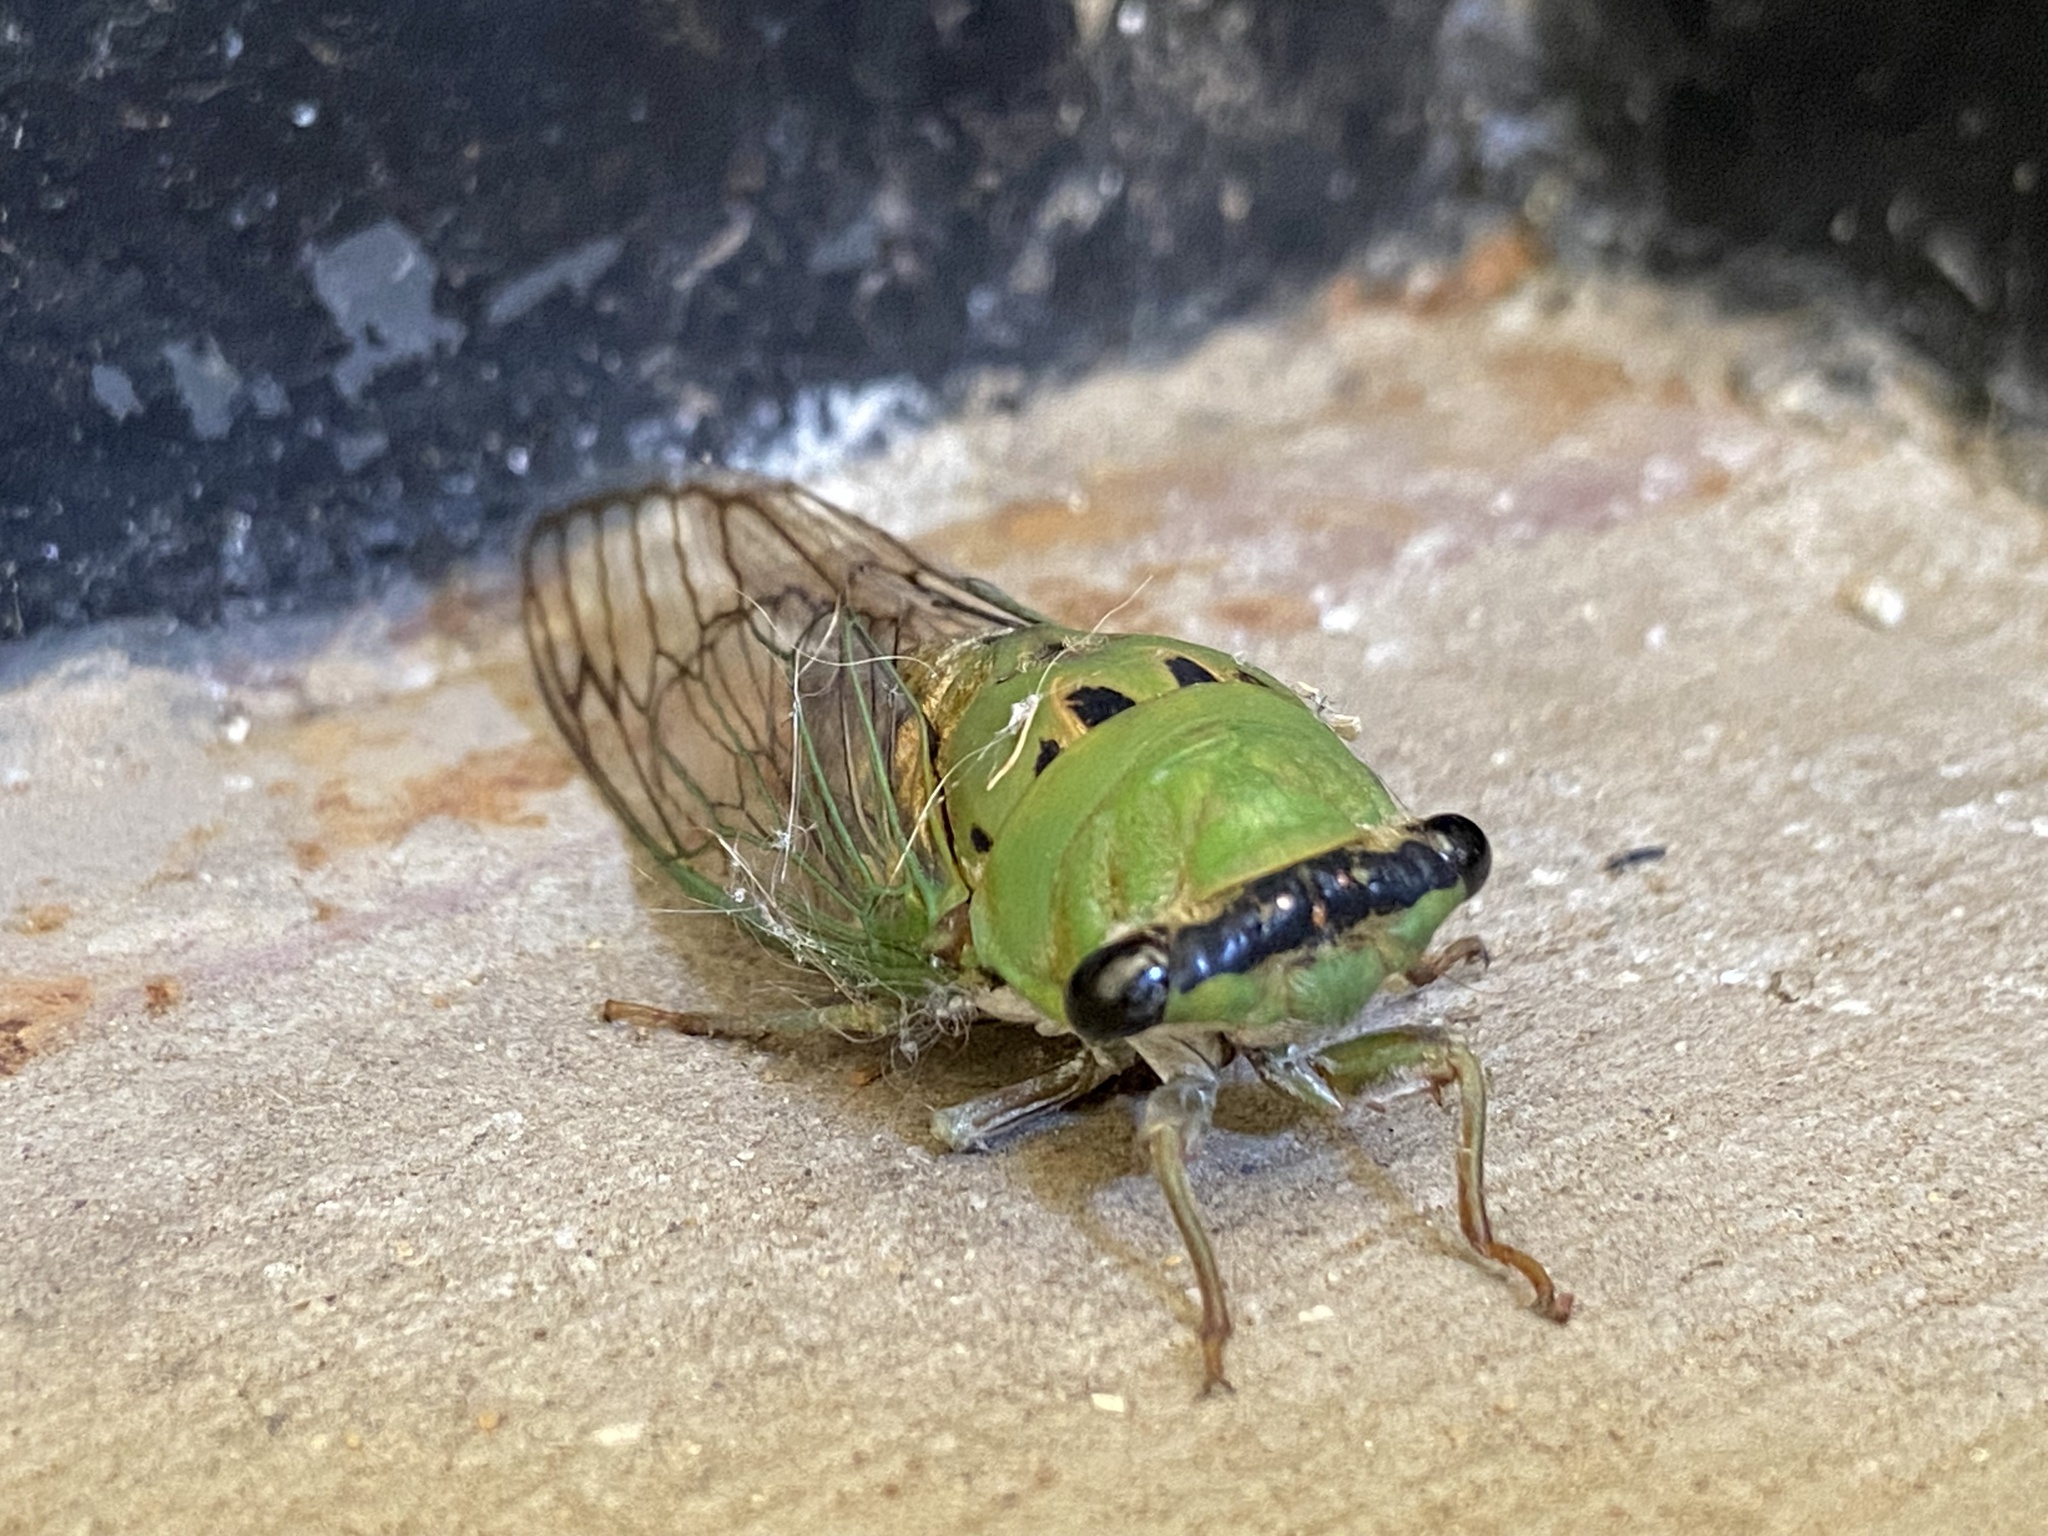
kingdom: Animalia
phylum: Arthropoda
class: Insecta
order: Hemiptera
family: Cicadidae
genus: Neotibicen
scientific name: Neotibicen superbus
